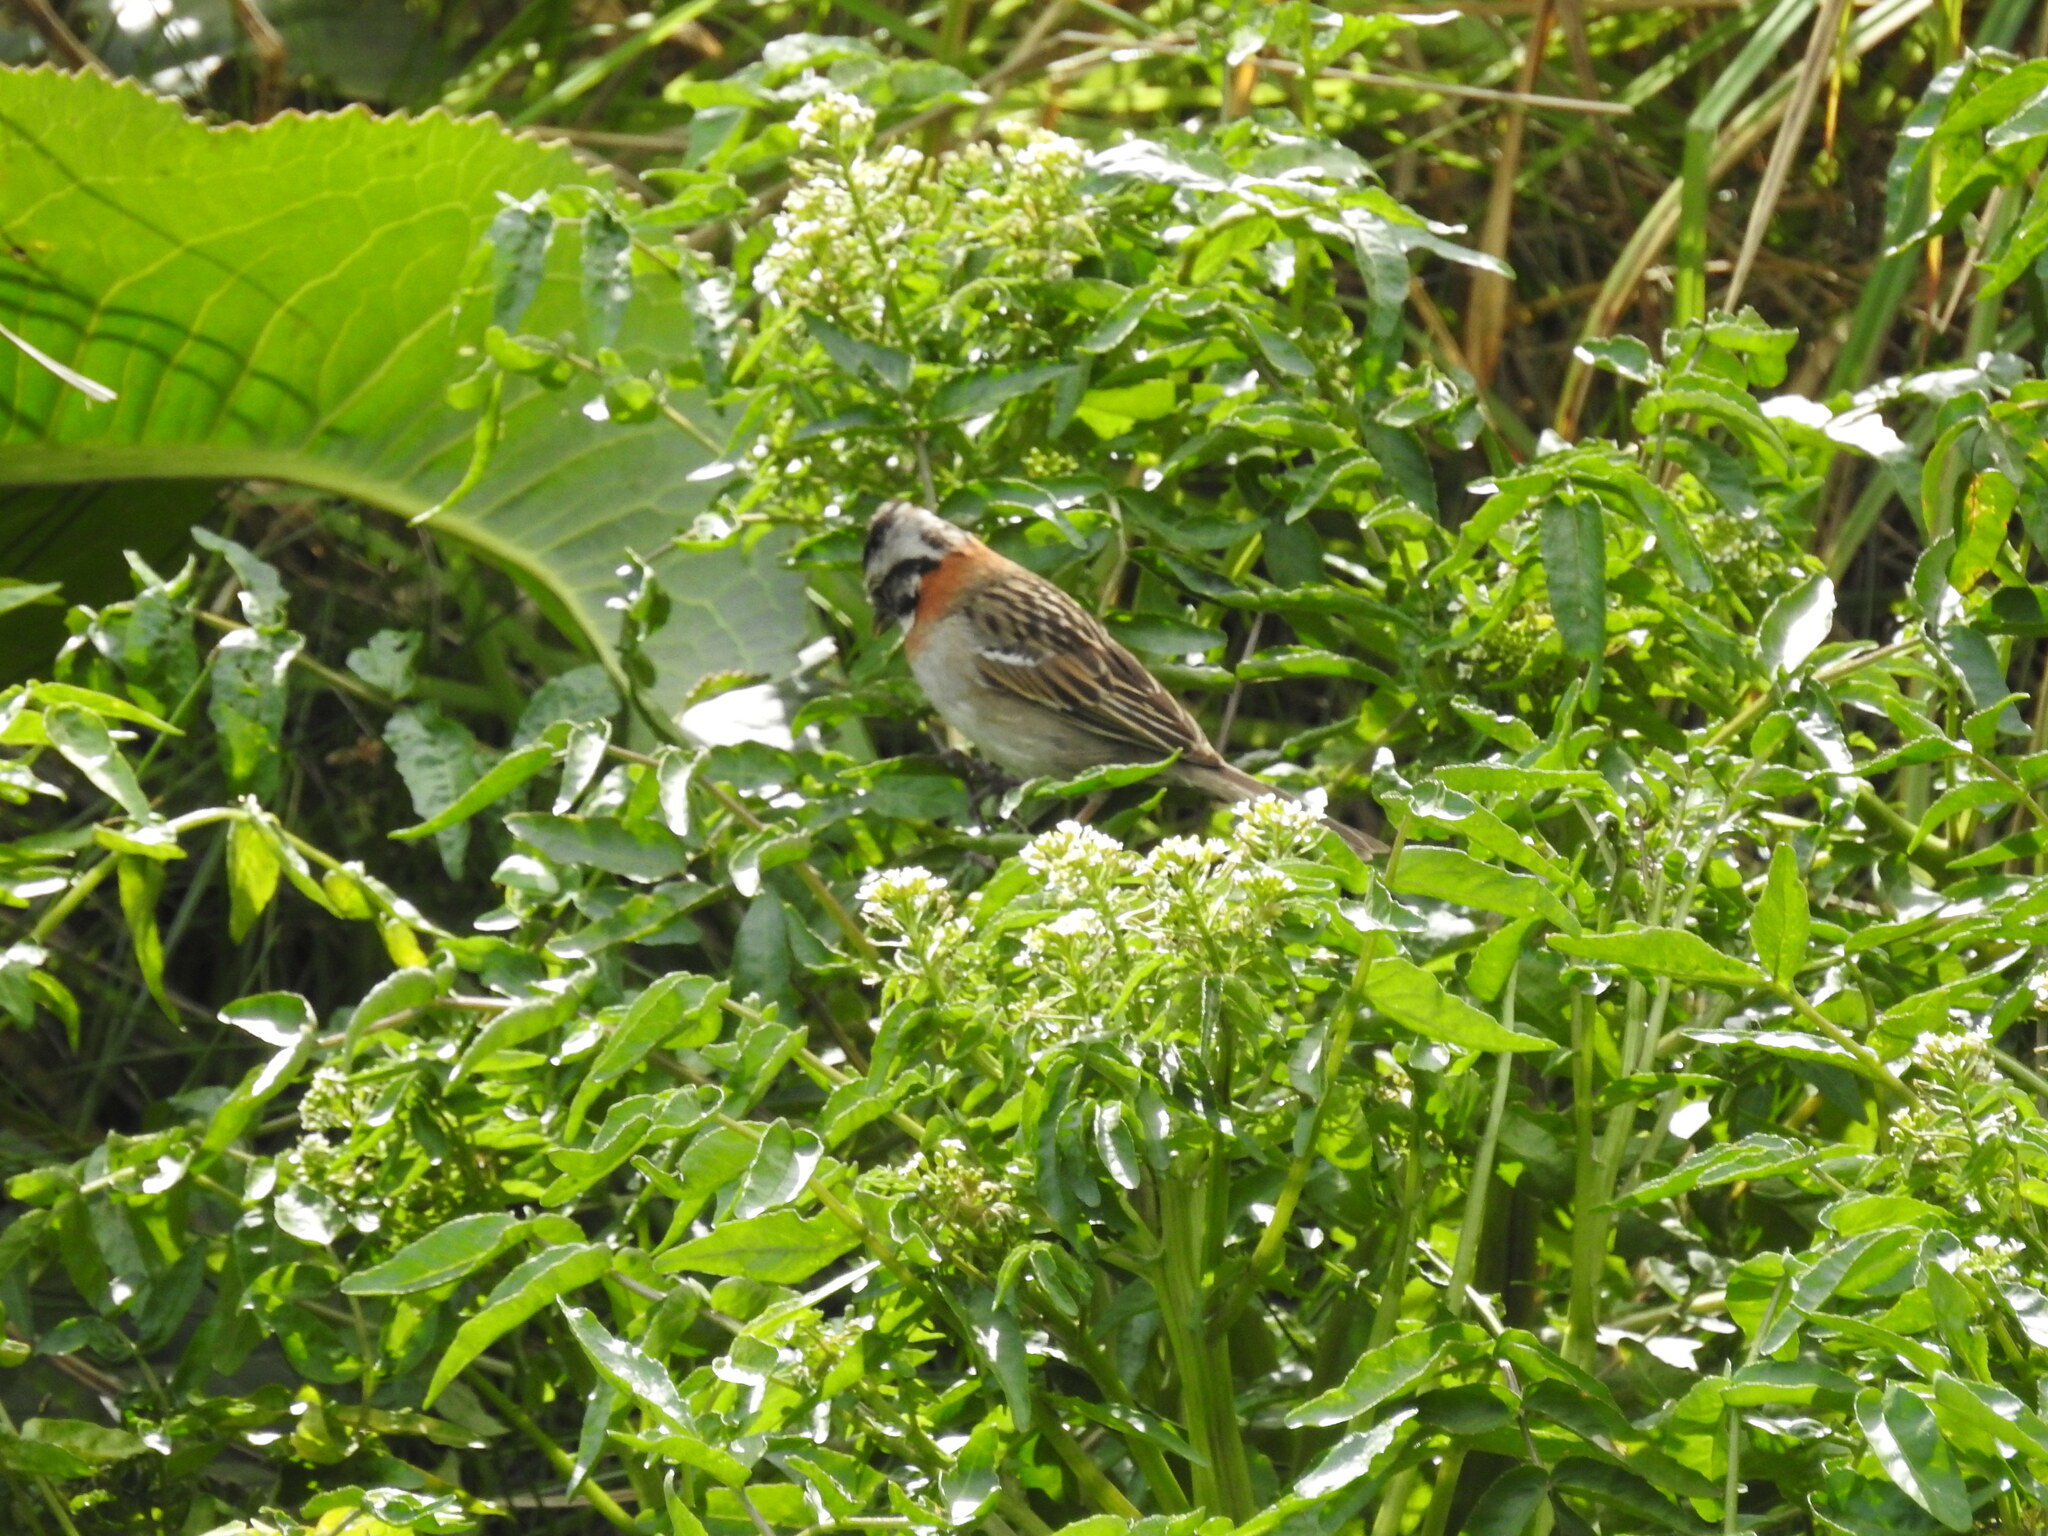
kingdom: Animalia
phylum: Chordata
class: Aves
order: Passeriformes
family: Passerellidae
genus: Zonotrichia
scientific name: Zonotrichia capensis
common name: Rufous-collared sparrow
